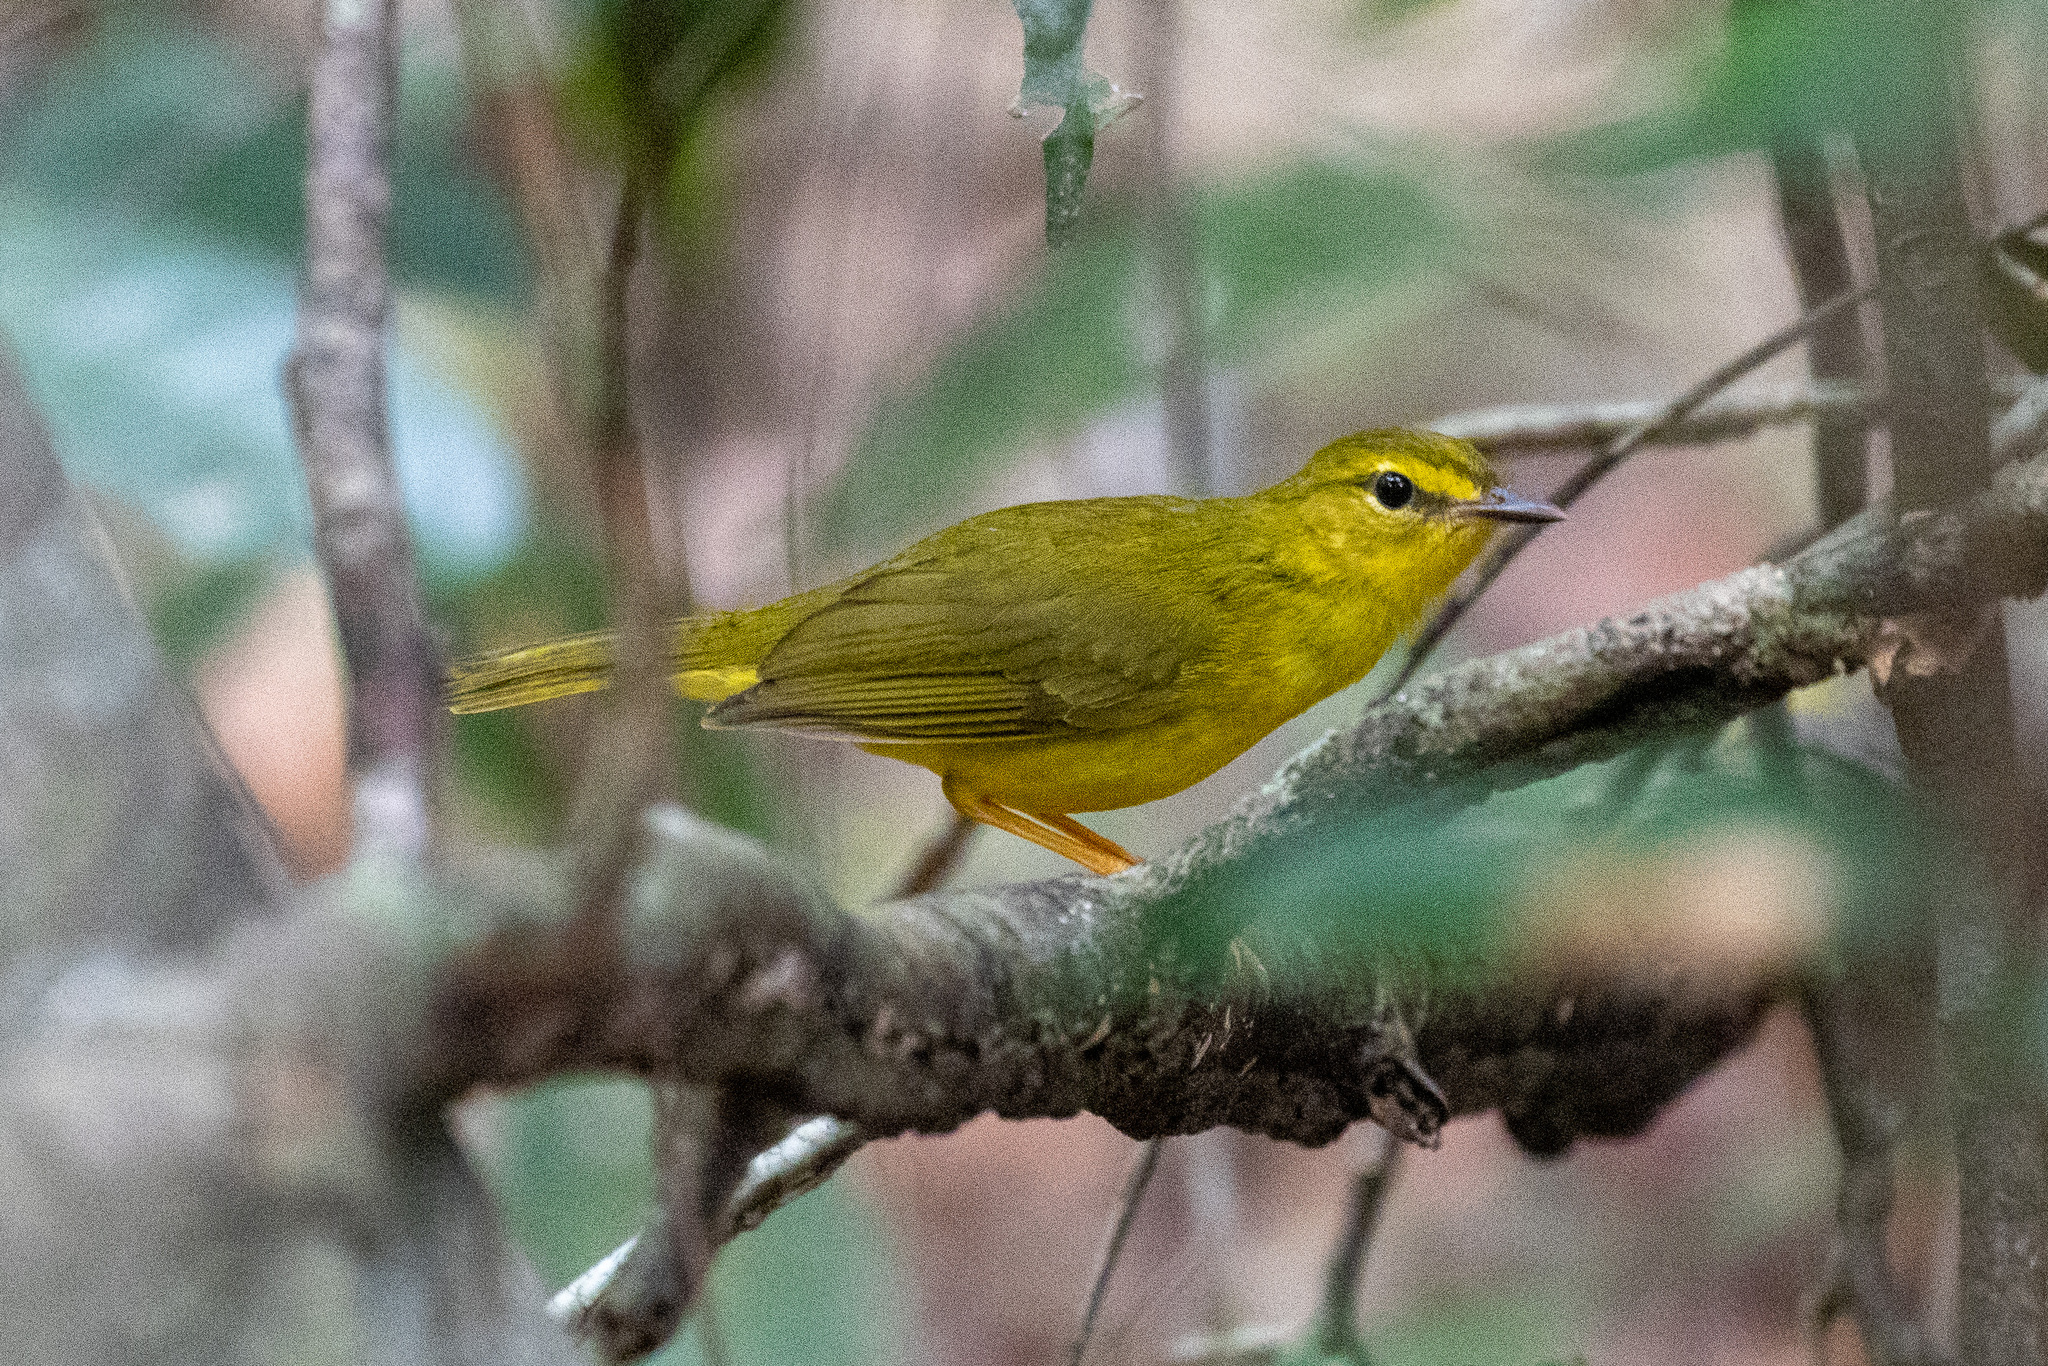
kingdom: Animalia
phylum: Chordata
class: Aves
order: Passeriformes
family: Parulidae
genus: Myiothlypis
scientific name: Myiothlypis flaveola
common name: Flavescent warbler
